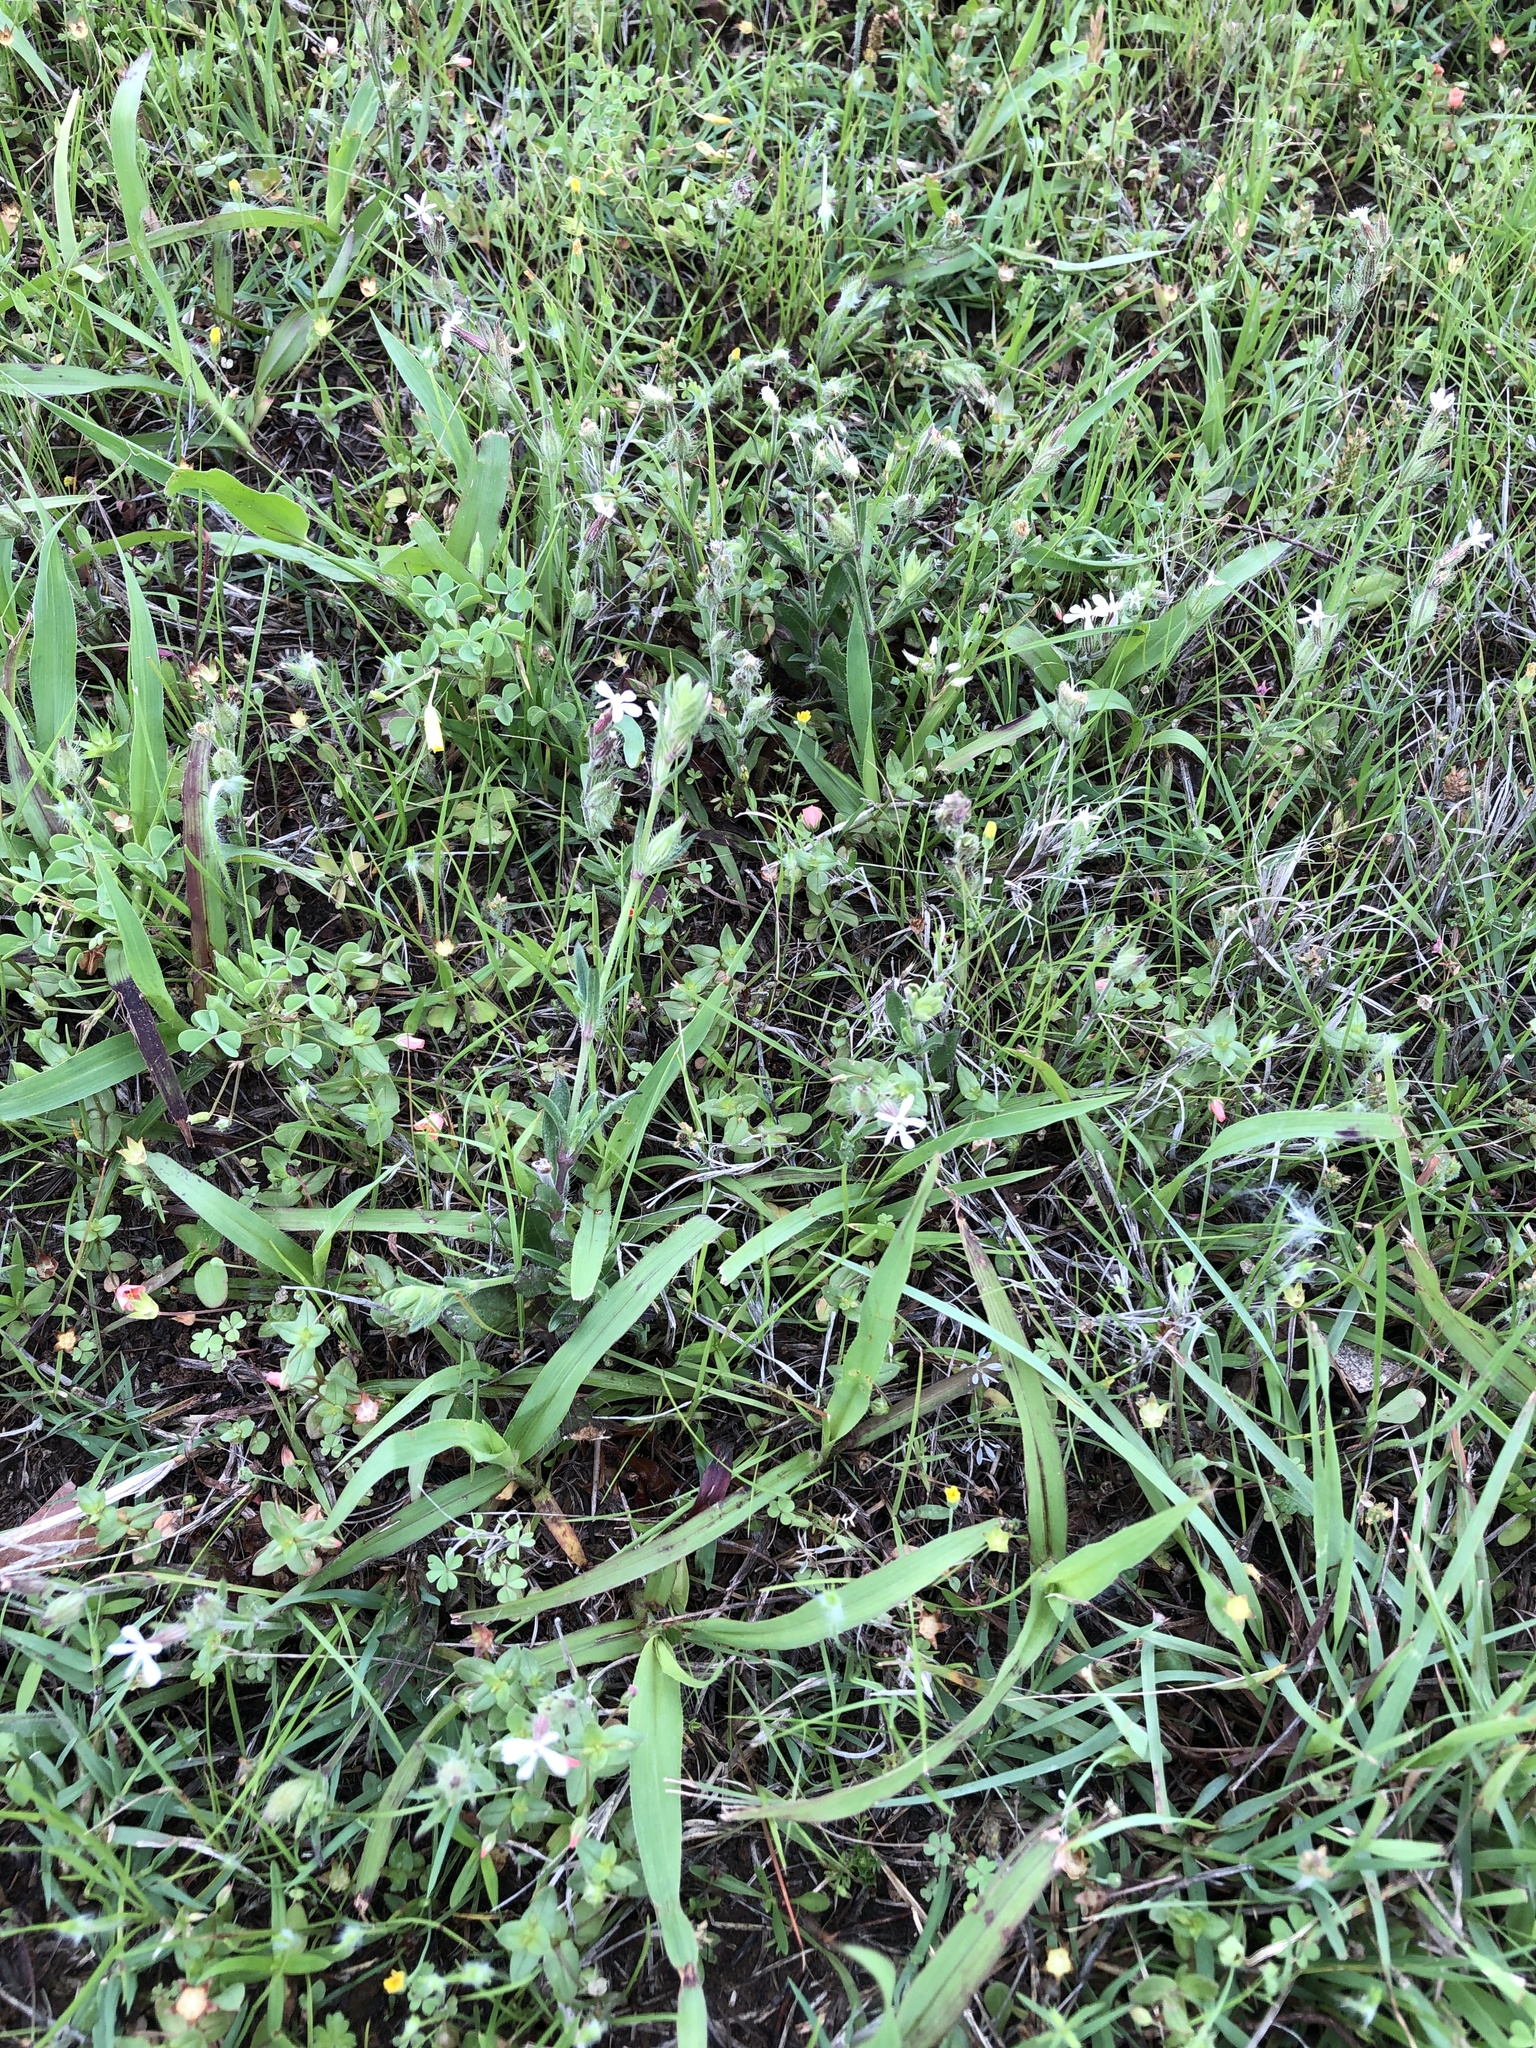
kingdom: Plantae
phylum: Tracheophyta
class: Magnoliopsida
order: Caryophyllales
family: Caryophyllaceae
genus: Silene
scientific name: Silene gallica
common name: Small-flowered catchfly
